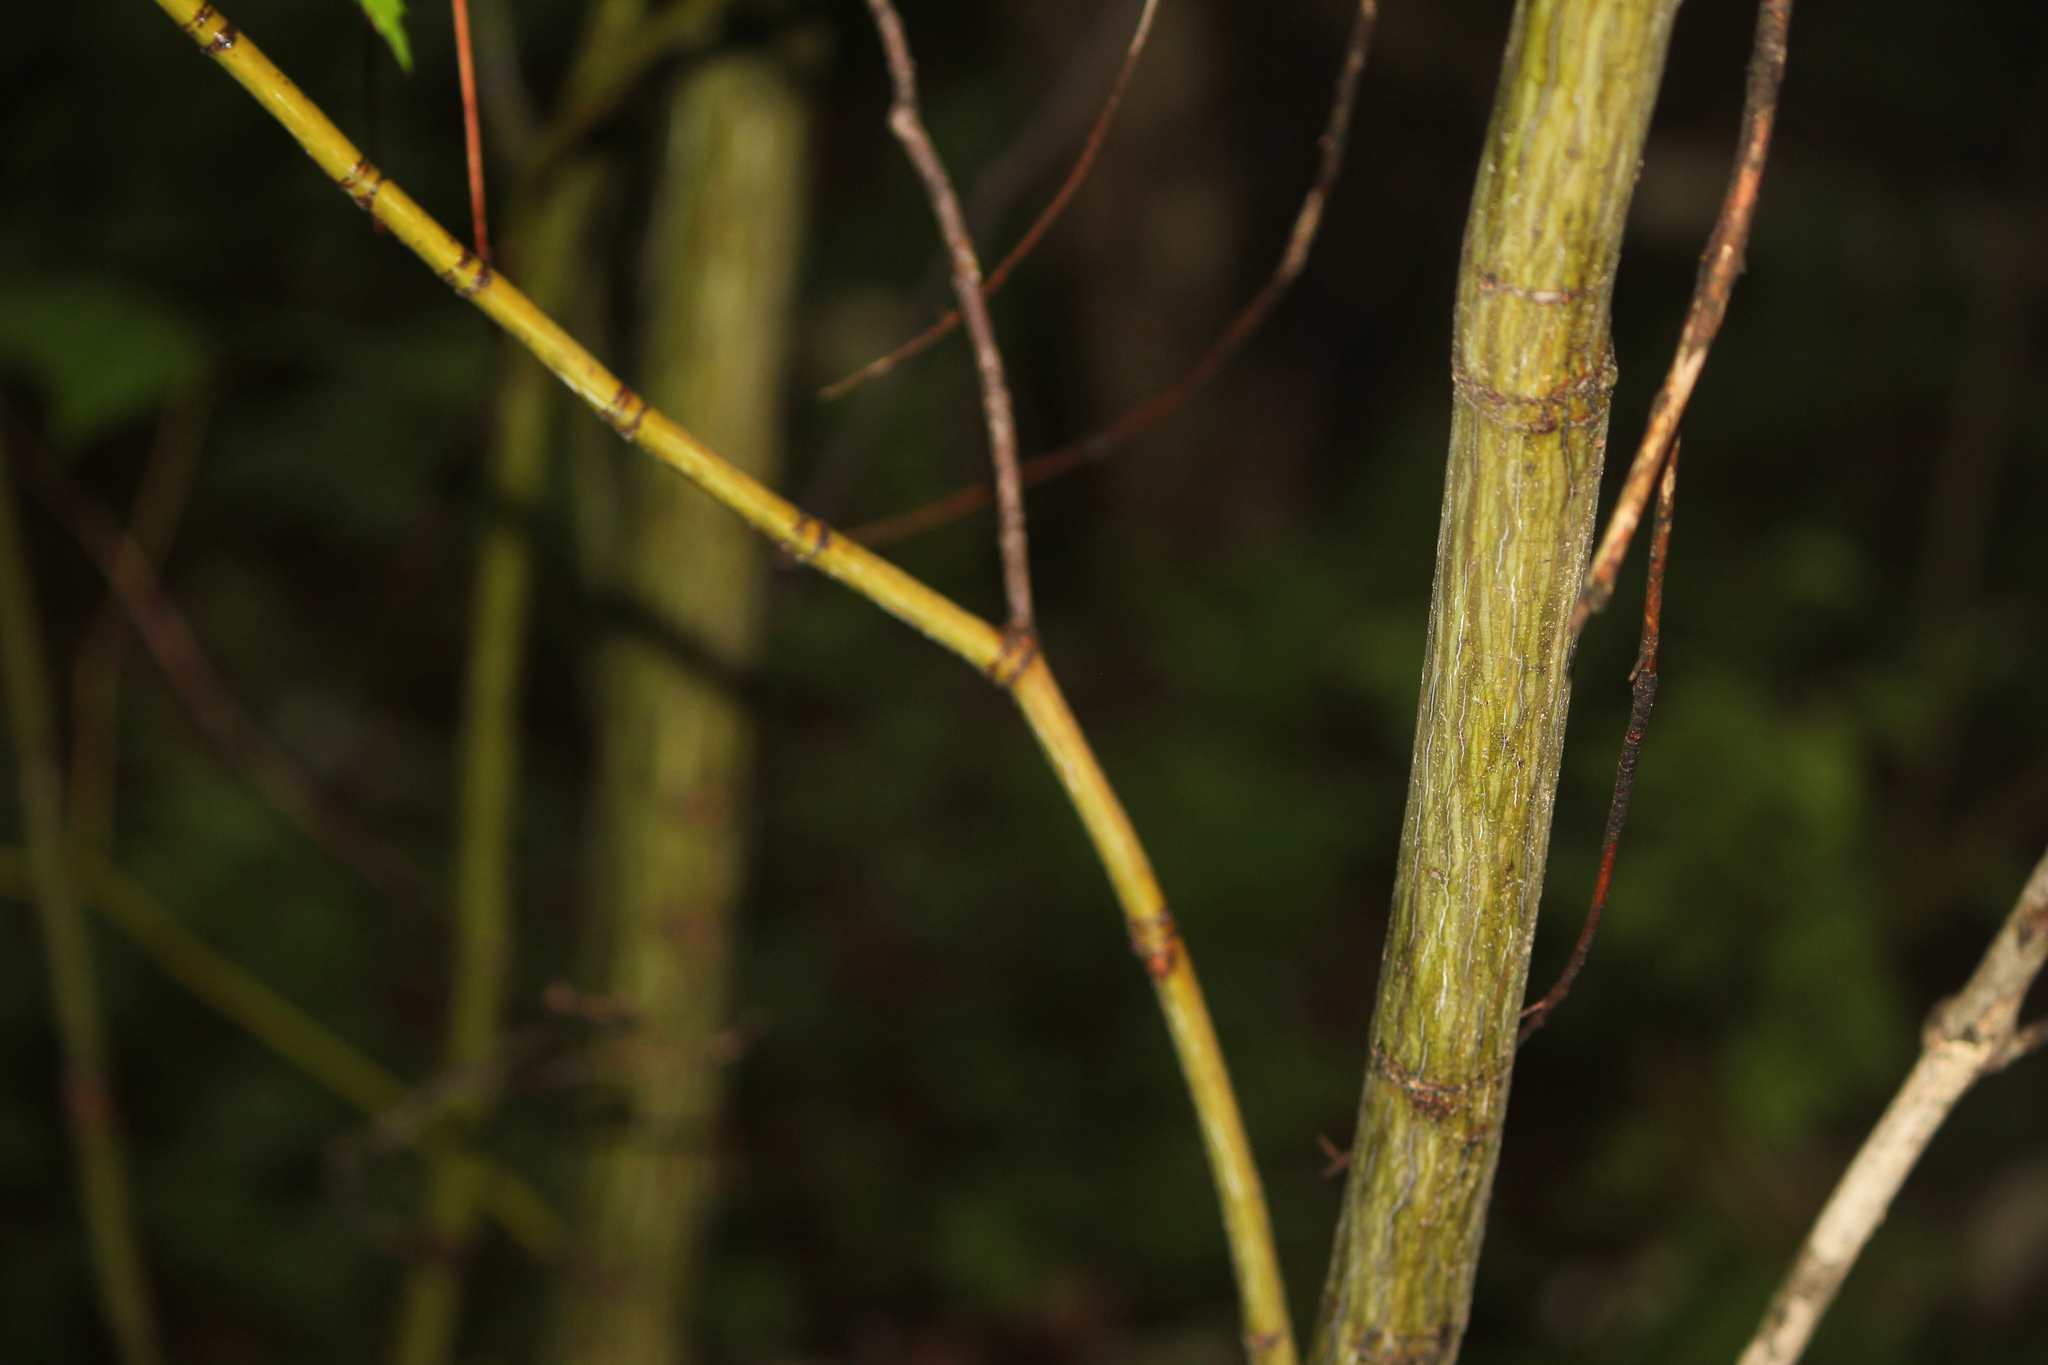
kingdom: Plantae
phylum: Tracheophyta
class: Magnoliopsida
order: Sapindales
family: Sapindaceae
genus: Acer
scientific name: Acer pensylvanicum
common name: Moosewood
